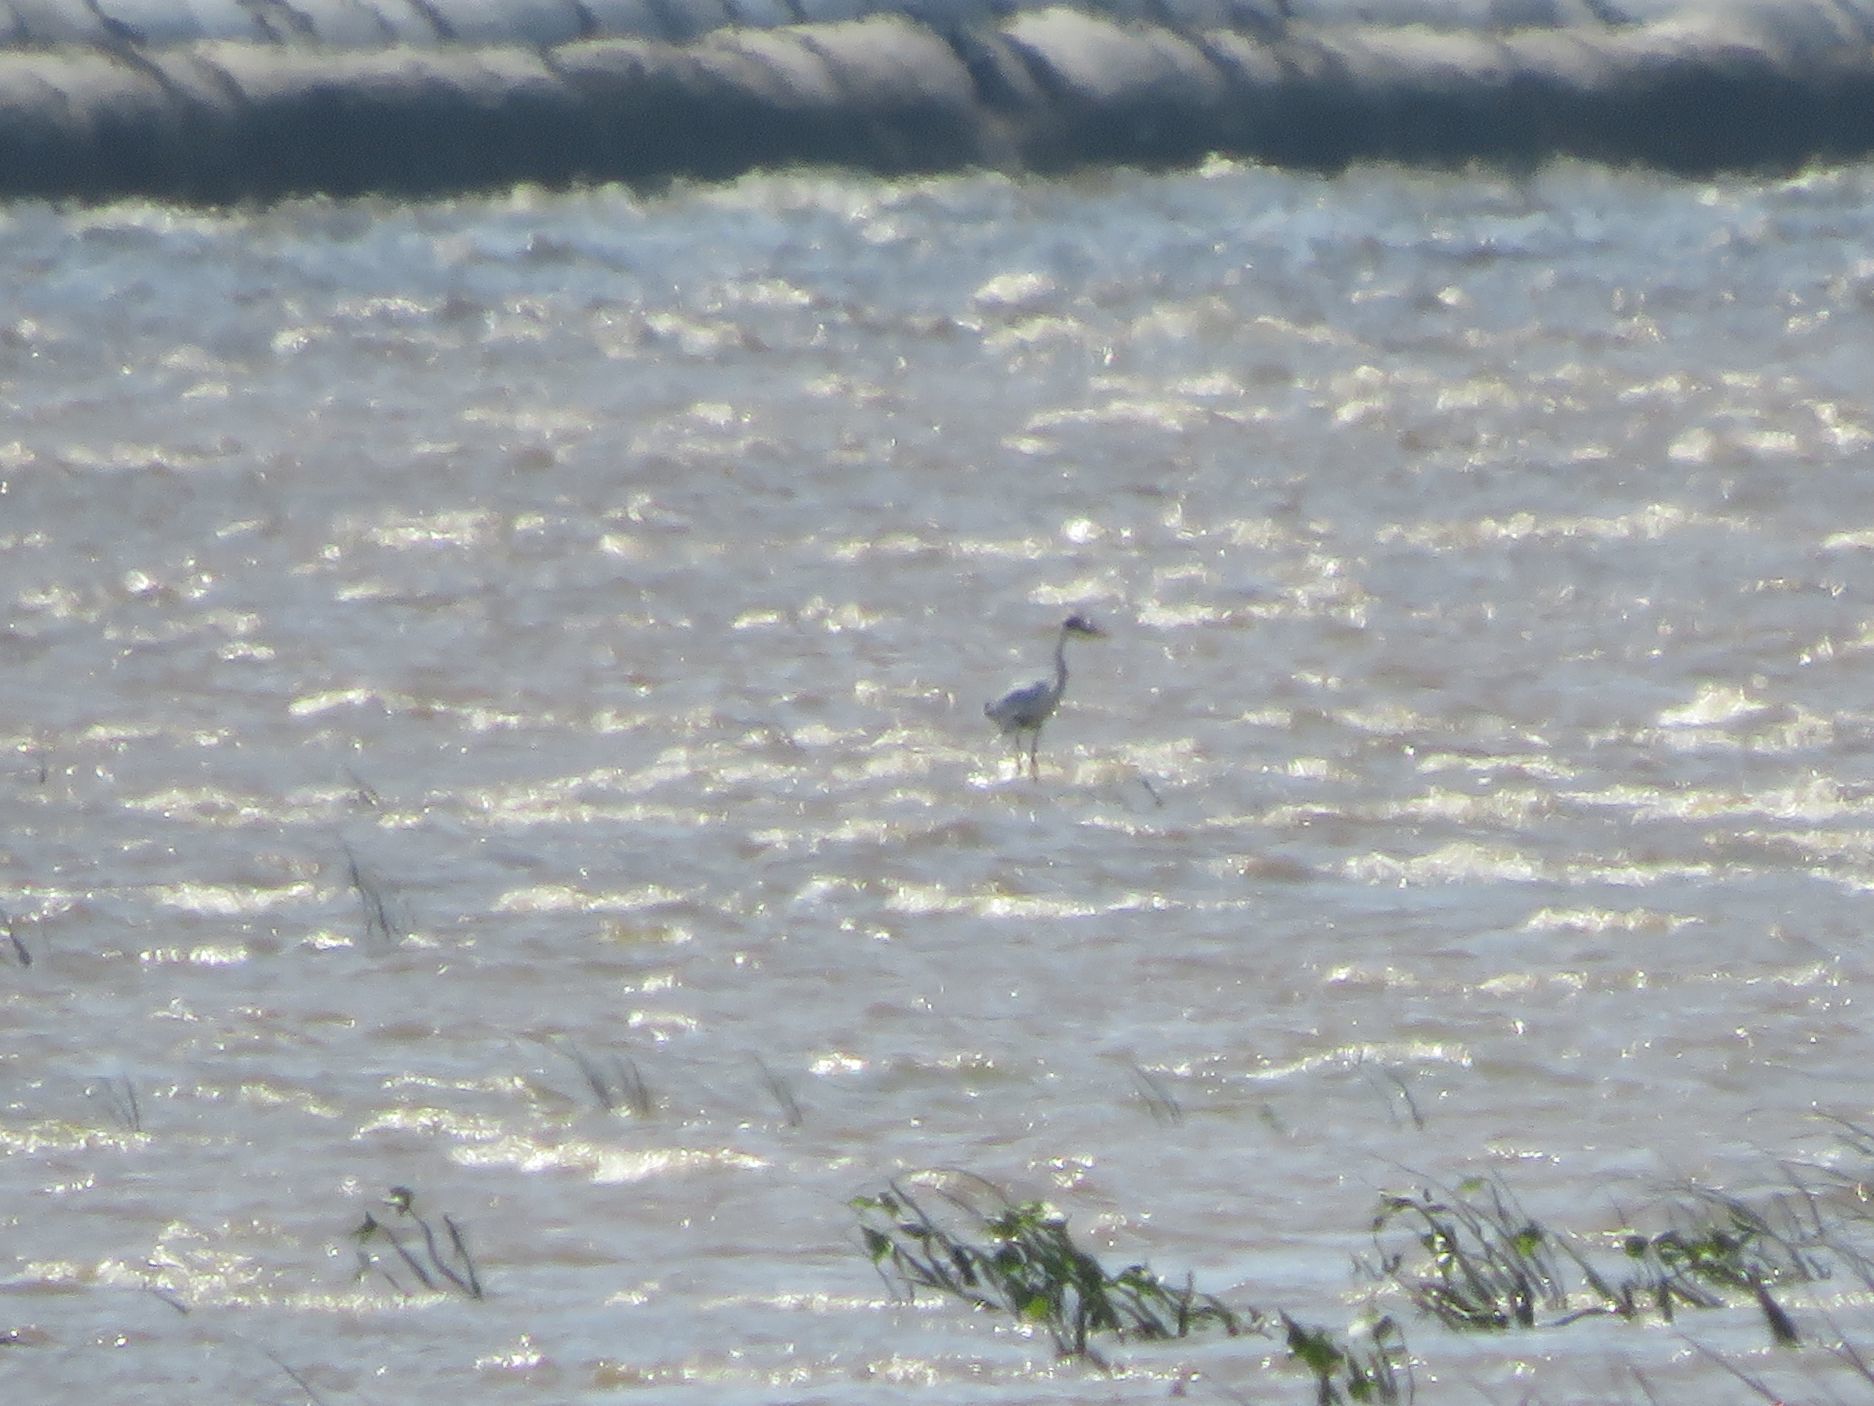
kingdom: Animalia
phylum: Chordata
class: Aves
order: Pelecaniformes
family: Ardeidae
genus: Ardea
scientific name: Ardea cocoi
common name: Cocoi heron
